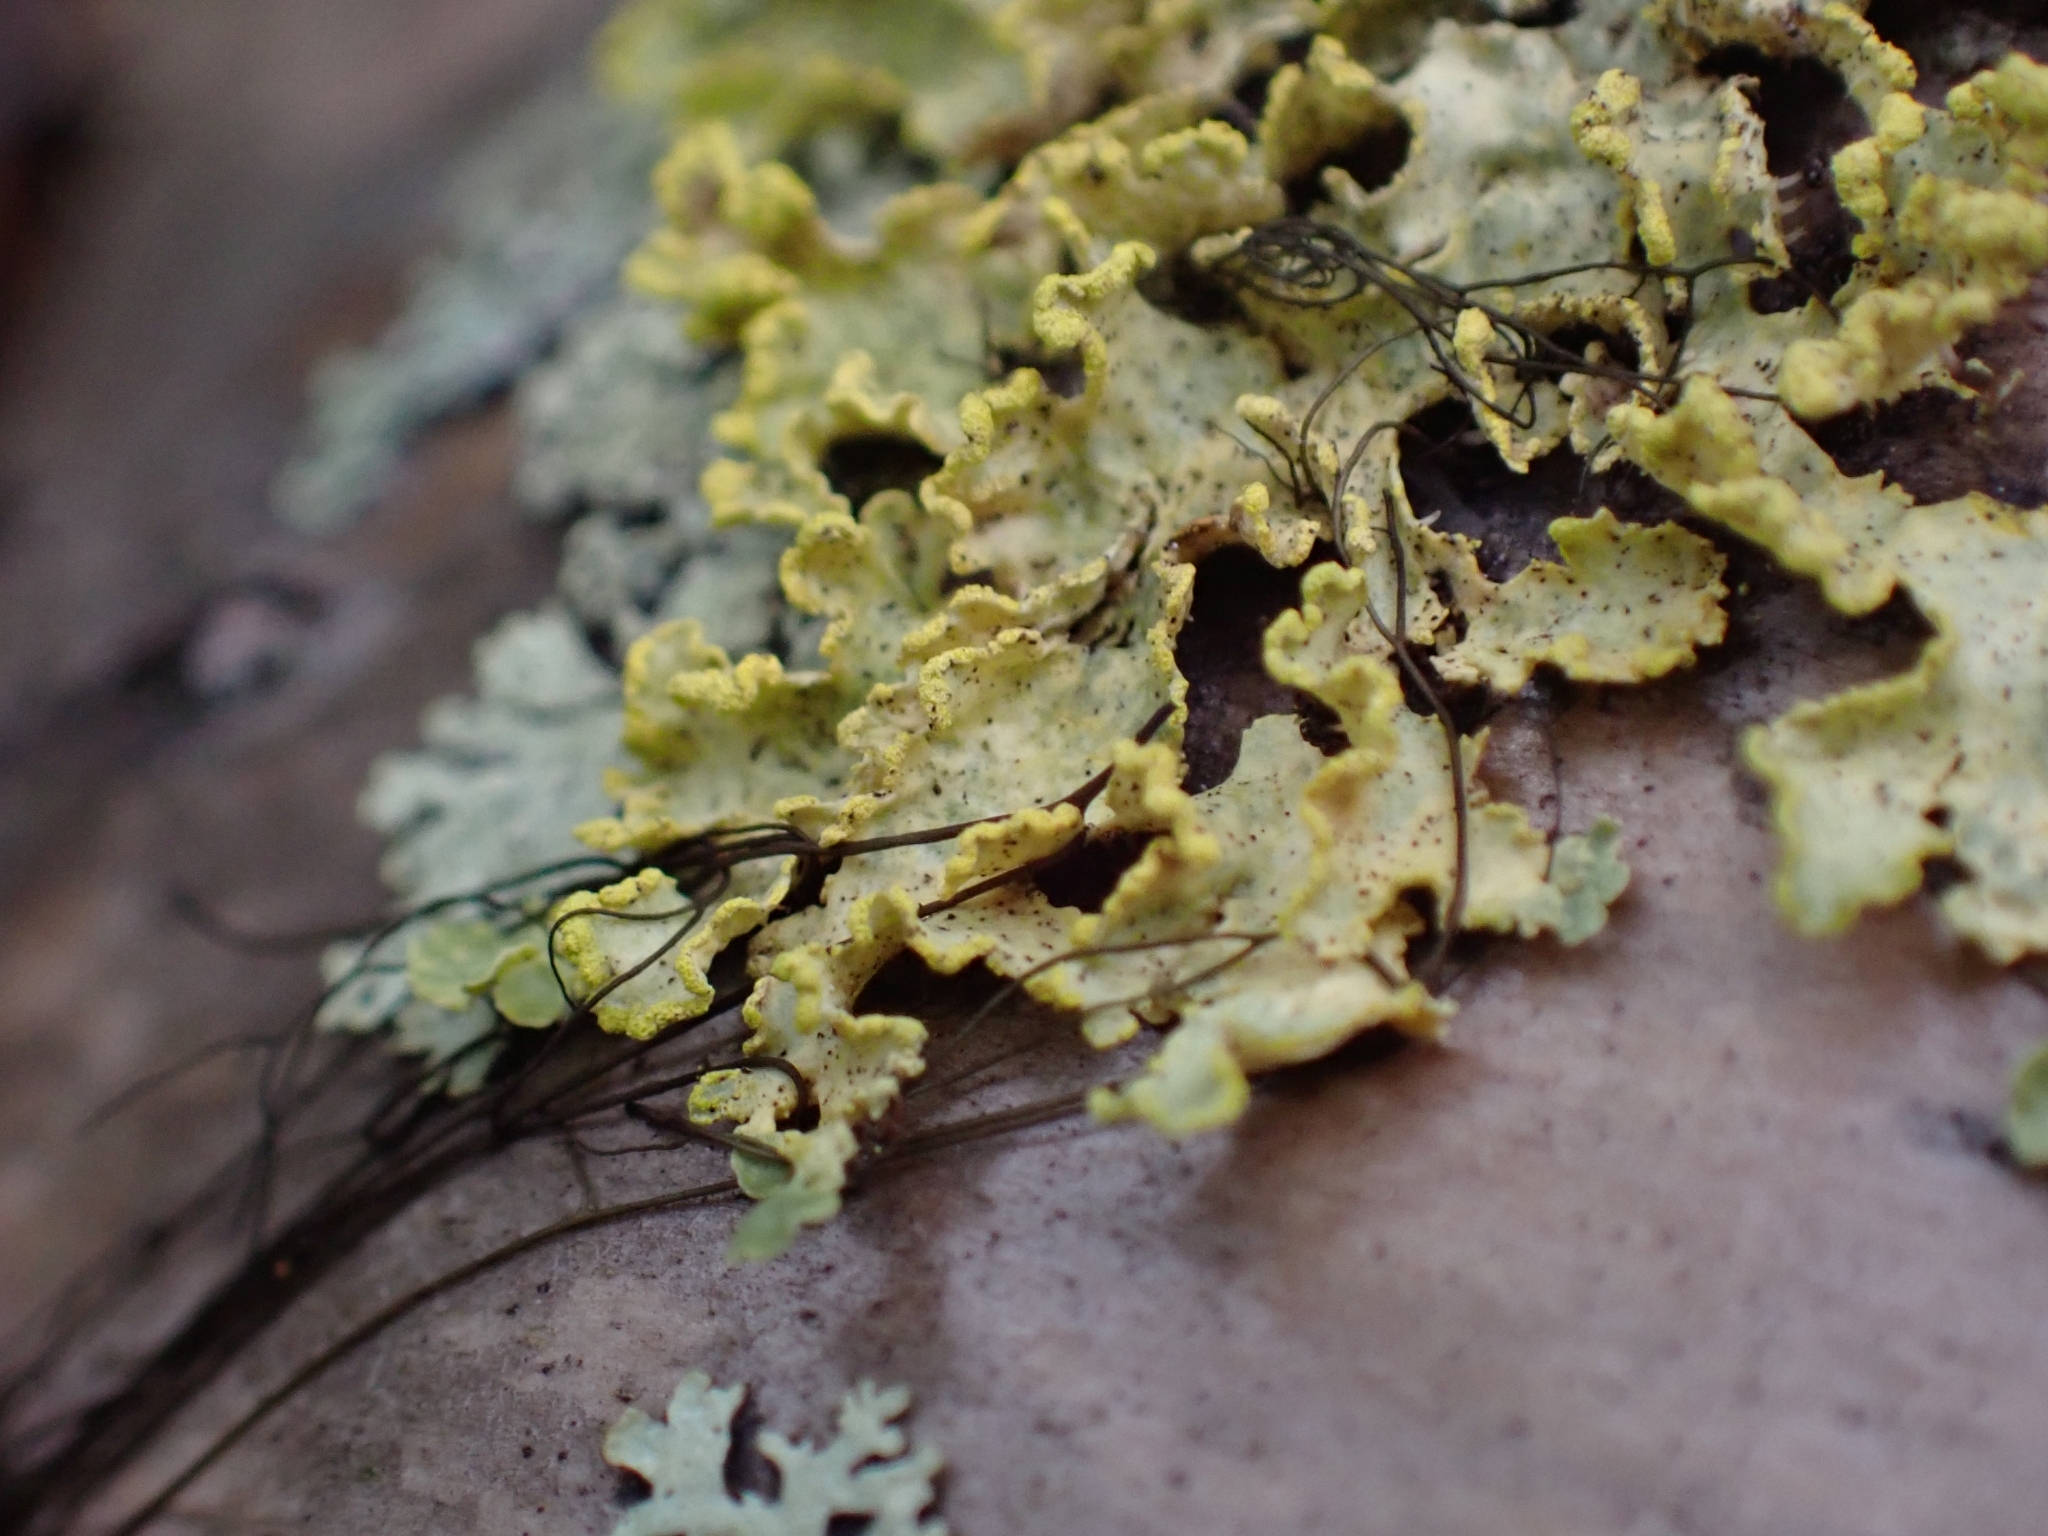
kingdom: Fungi
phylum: Ascomycota
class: Lecanoromycetes
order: Lecanorales
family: Parmeliaceae
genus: Vulpicida
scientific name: Vulpicida pinastri
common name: Powdered sunshine lichen
